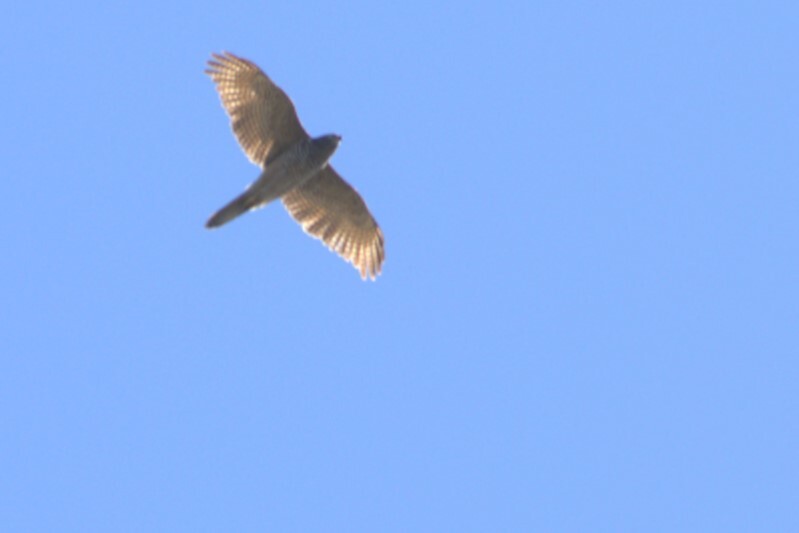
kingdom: Animalia
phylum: Chordata
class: Aves
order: Accipitriformes
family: Accipitridae
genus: Accipiter
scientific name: Accipiter fasciatus
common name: Brown goshawk
